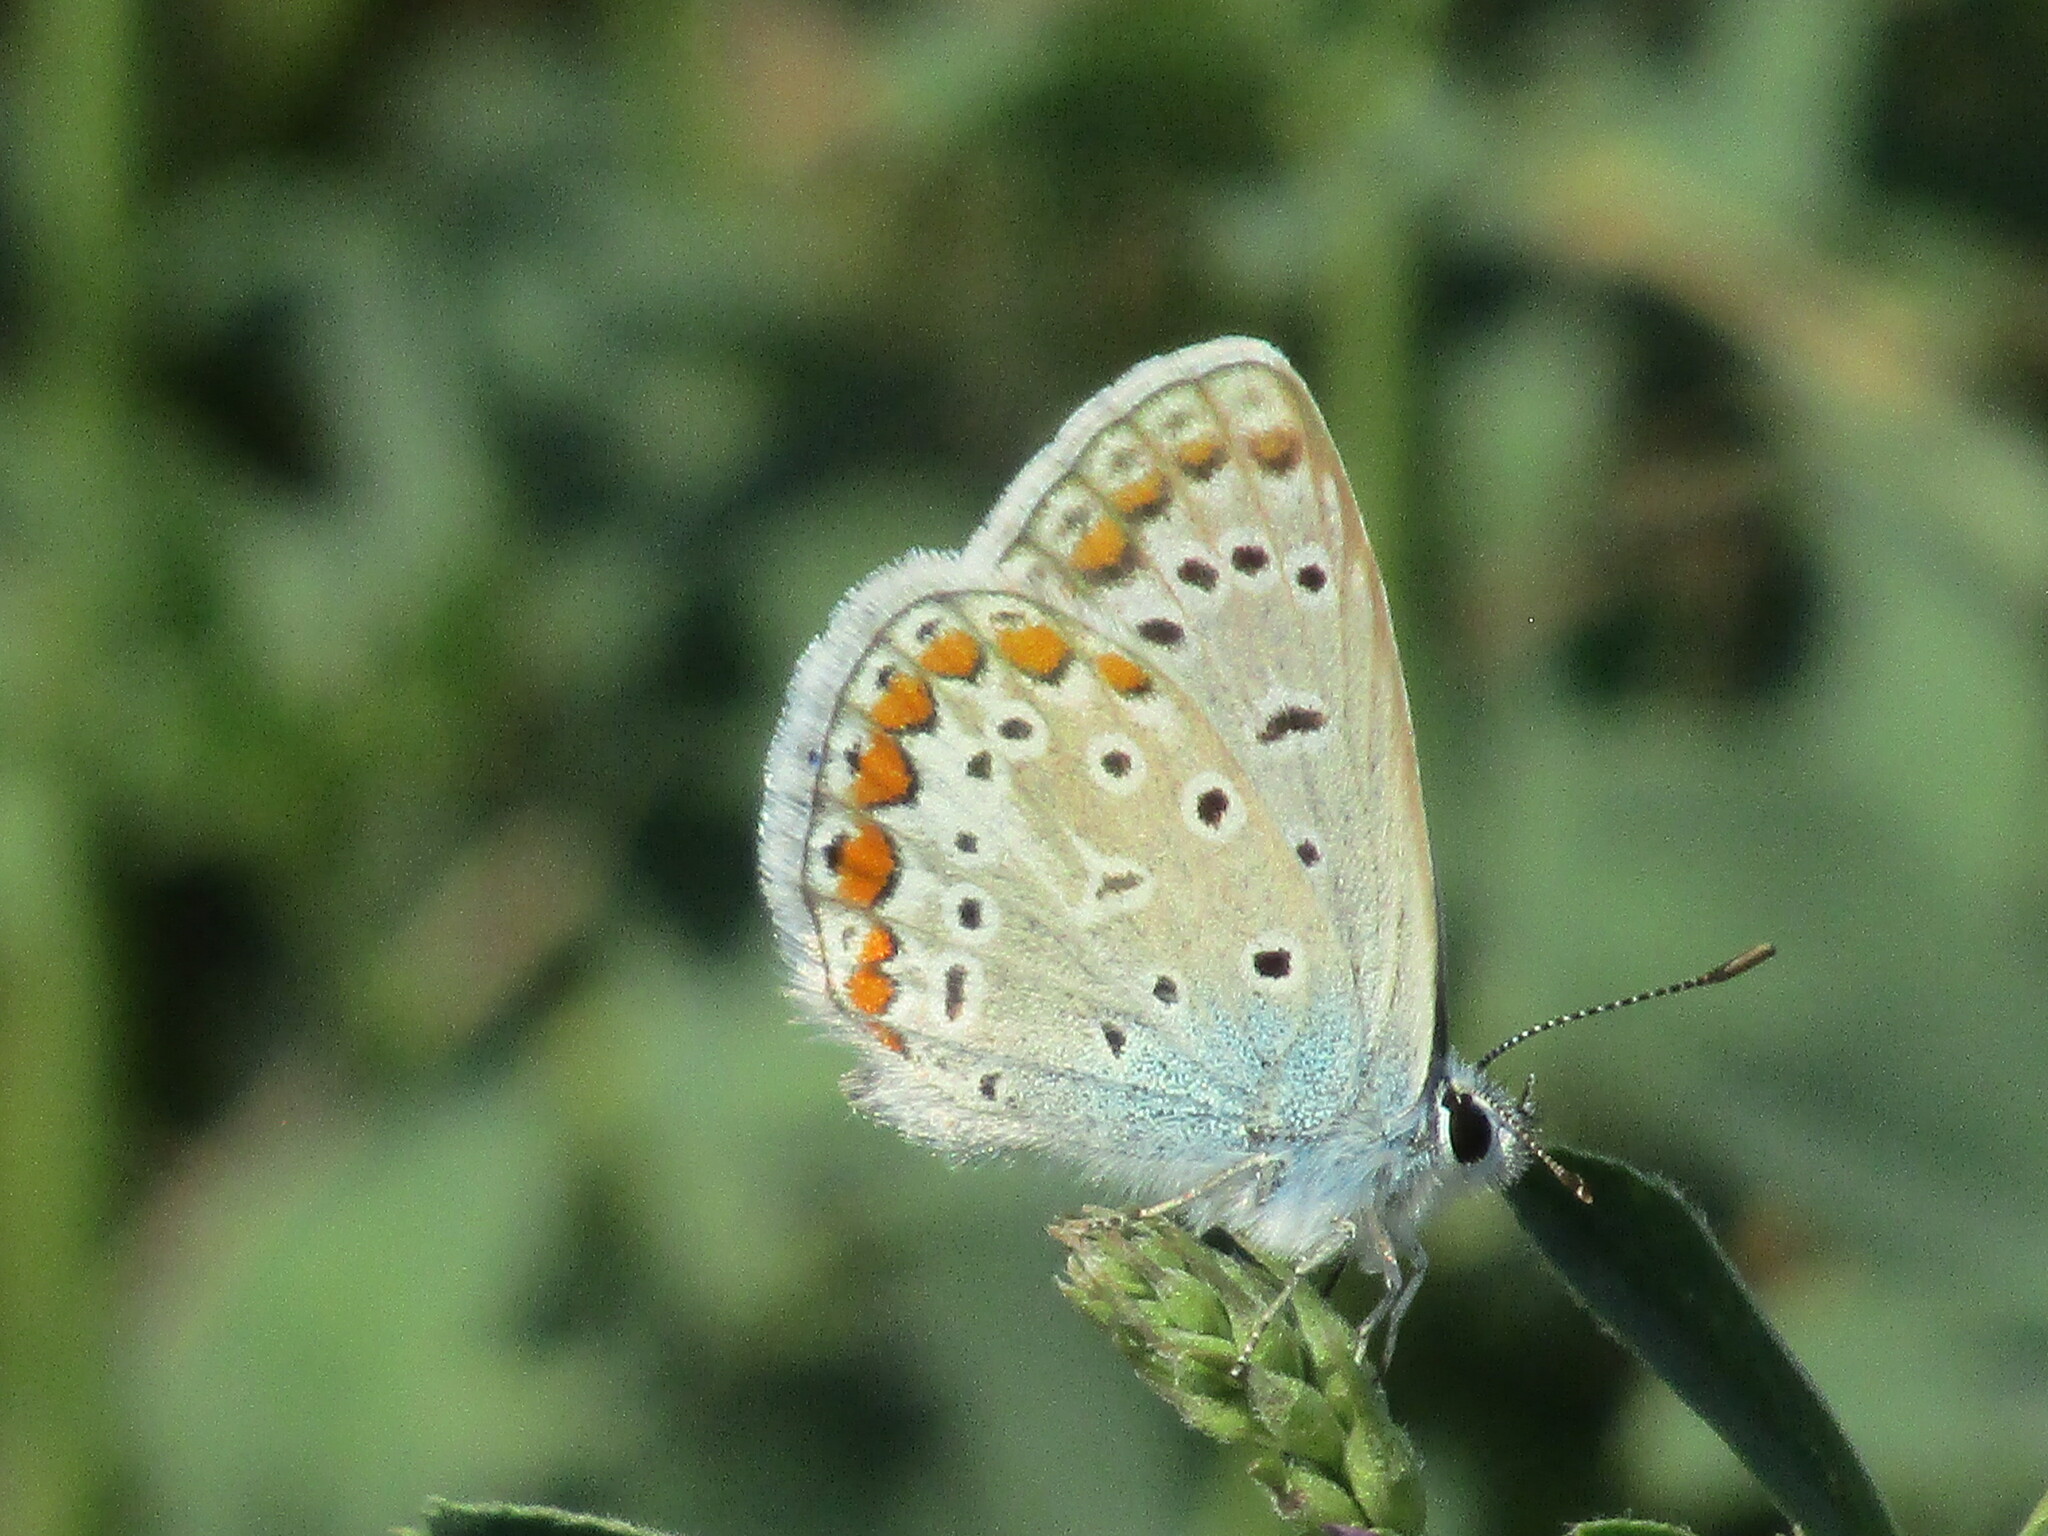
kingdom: Animalia
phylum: Arthropoda
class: Insecta
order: Lepidoptera
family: Lycaenidae
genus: Polyommatus
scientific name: Polyommatus icarus
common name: Common blue
